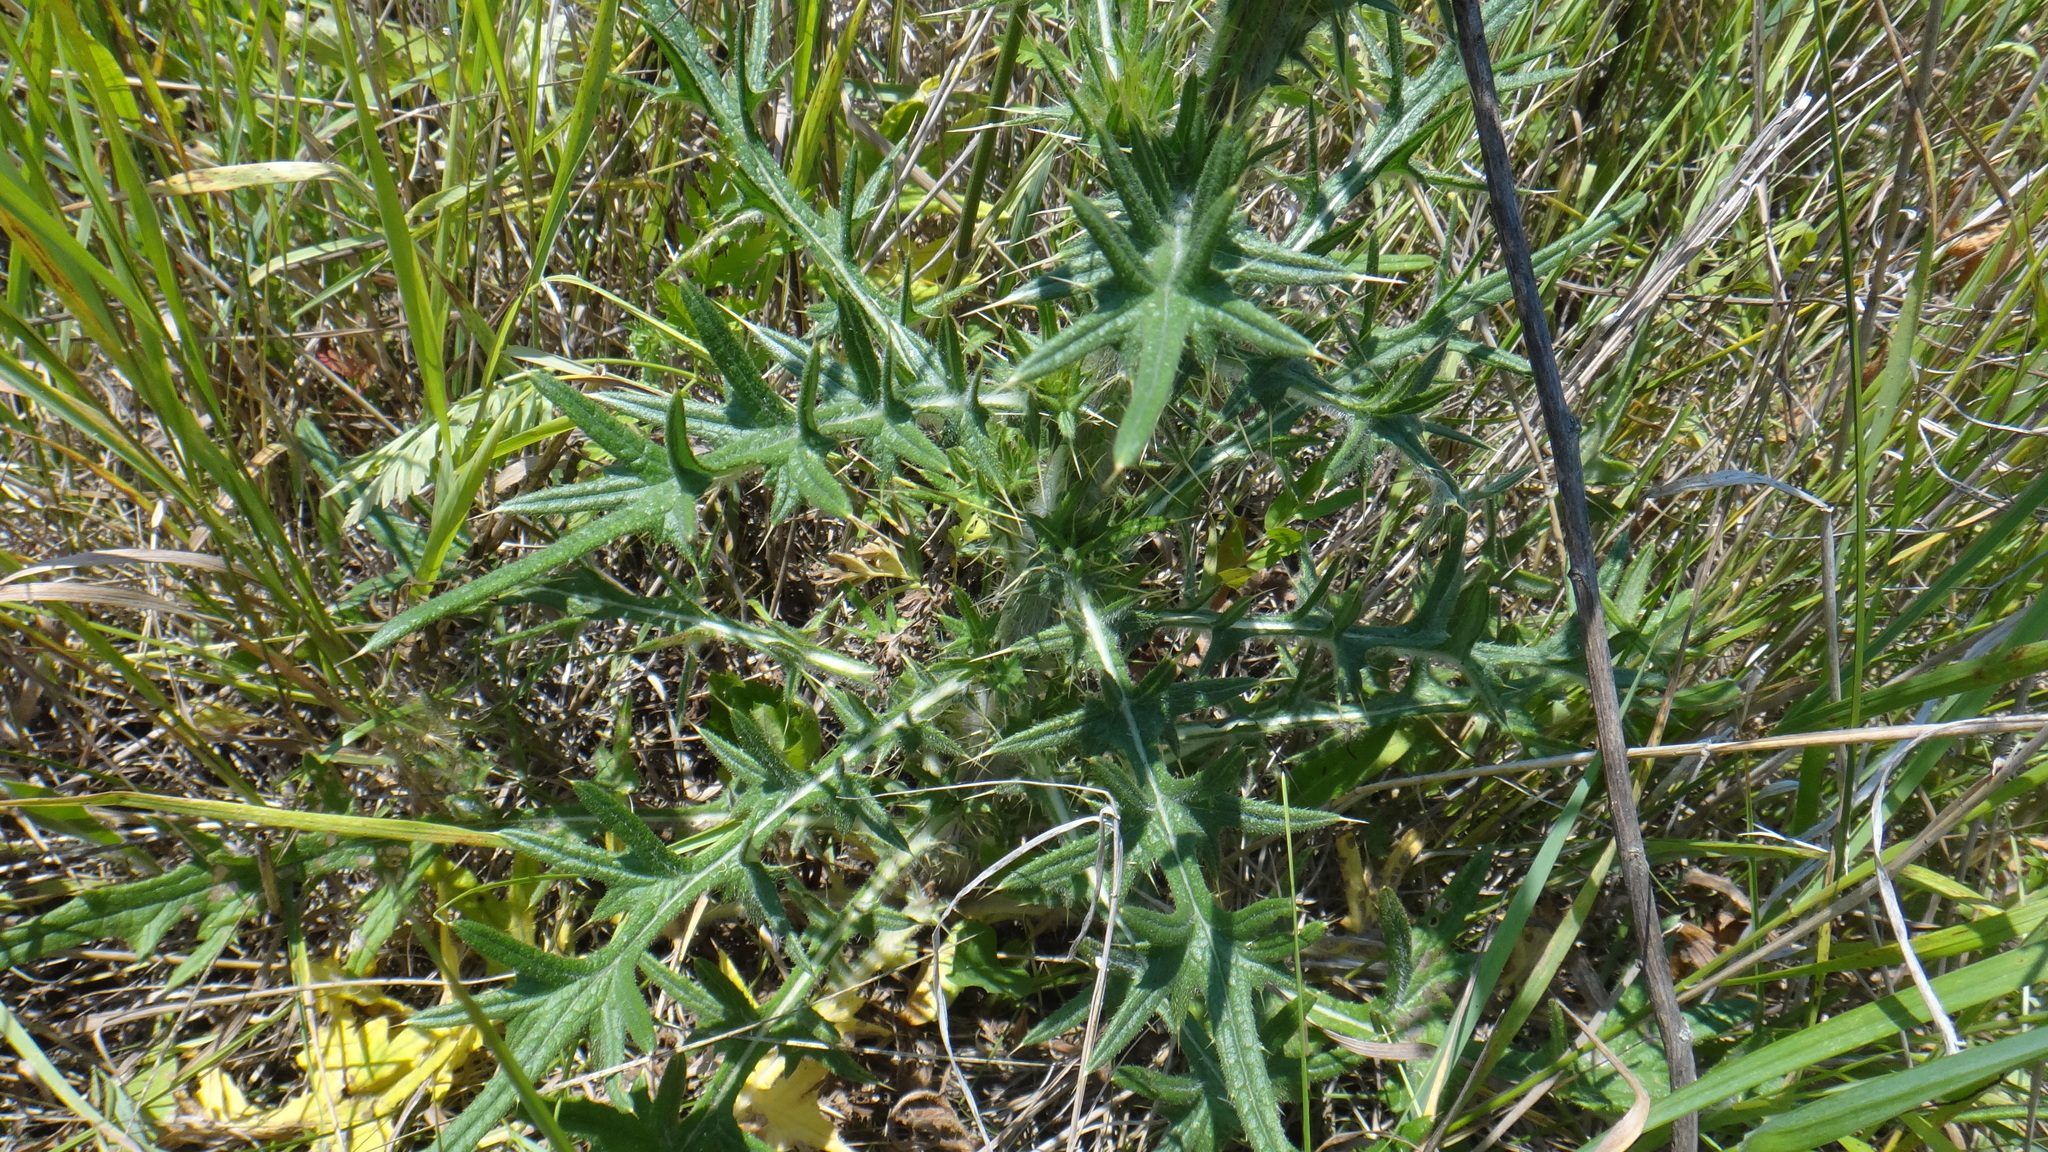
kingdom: Plantae
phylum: Tracheophyta
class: Magnoliopsida
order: Asterales
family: Asteraceae
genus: Cirsium
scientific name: Cirsium vulgare
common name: Bull thistle
